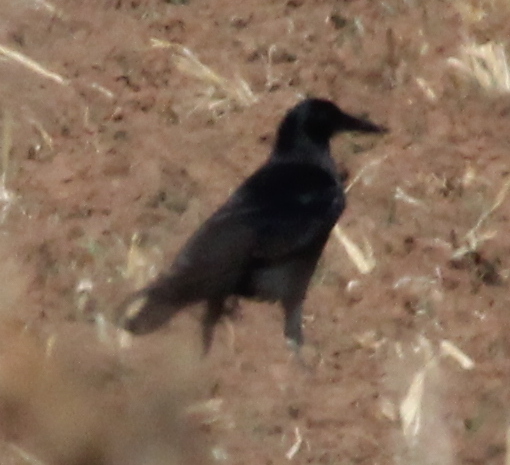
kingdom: Animalia
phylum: Chordata
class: Aves
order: Passeriformes
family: Corvidae
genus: Corvus
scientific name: Corvus brachyrhynchos
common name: American crow
